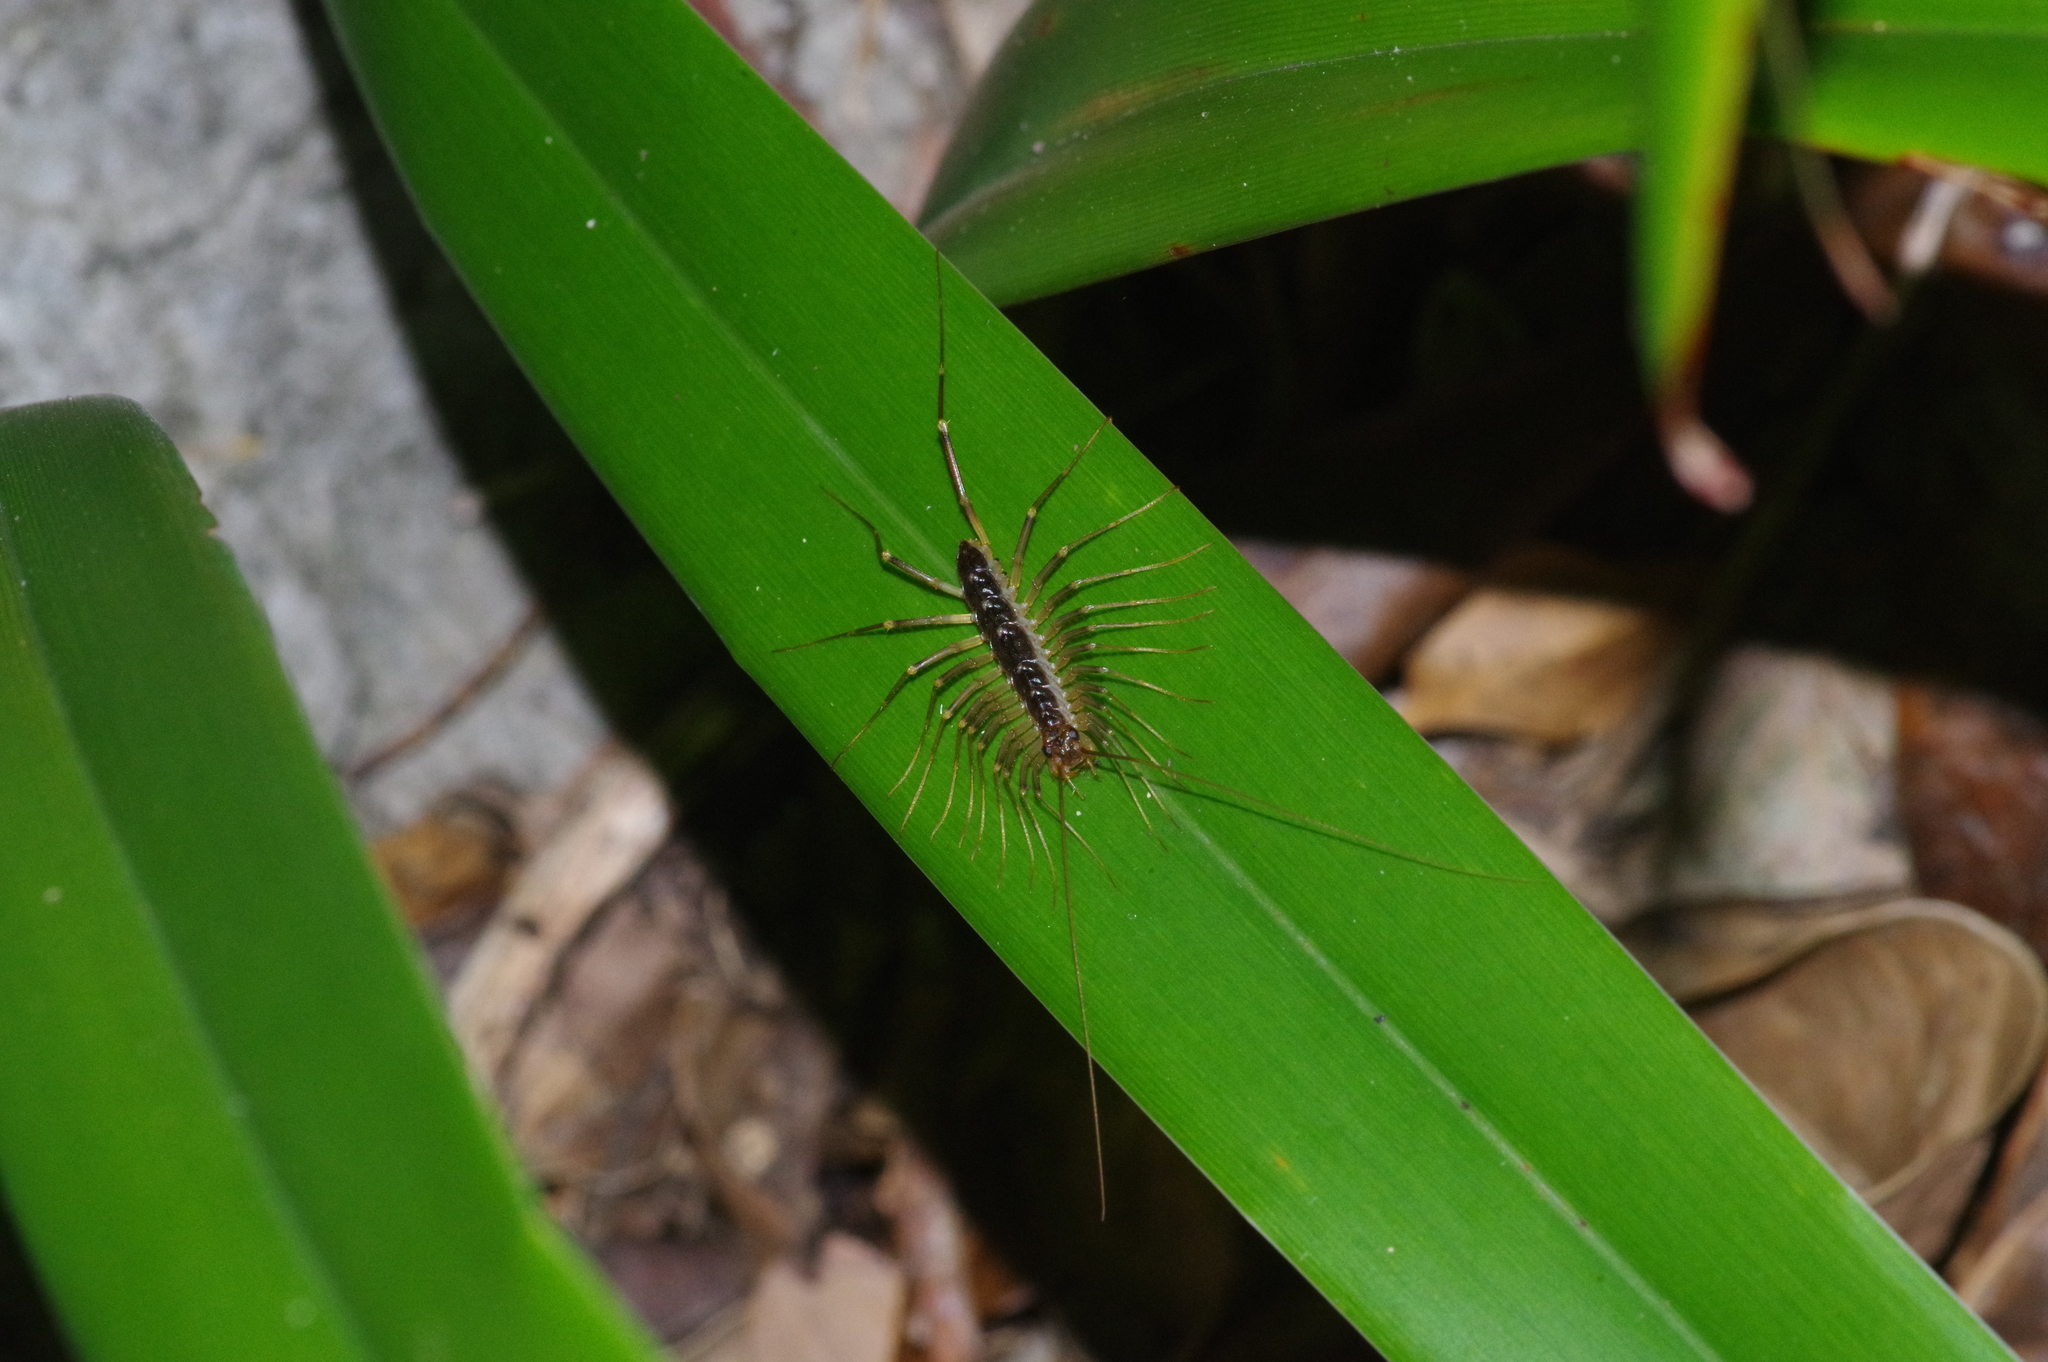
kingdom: Animalia
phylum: Arthropoda
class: Chilopoda
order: Scutigeromorpha
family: Scutigeridae
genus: Thereuopoda
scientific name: Thereuopoda clunifera
